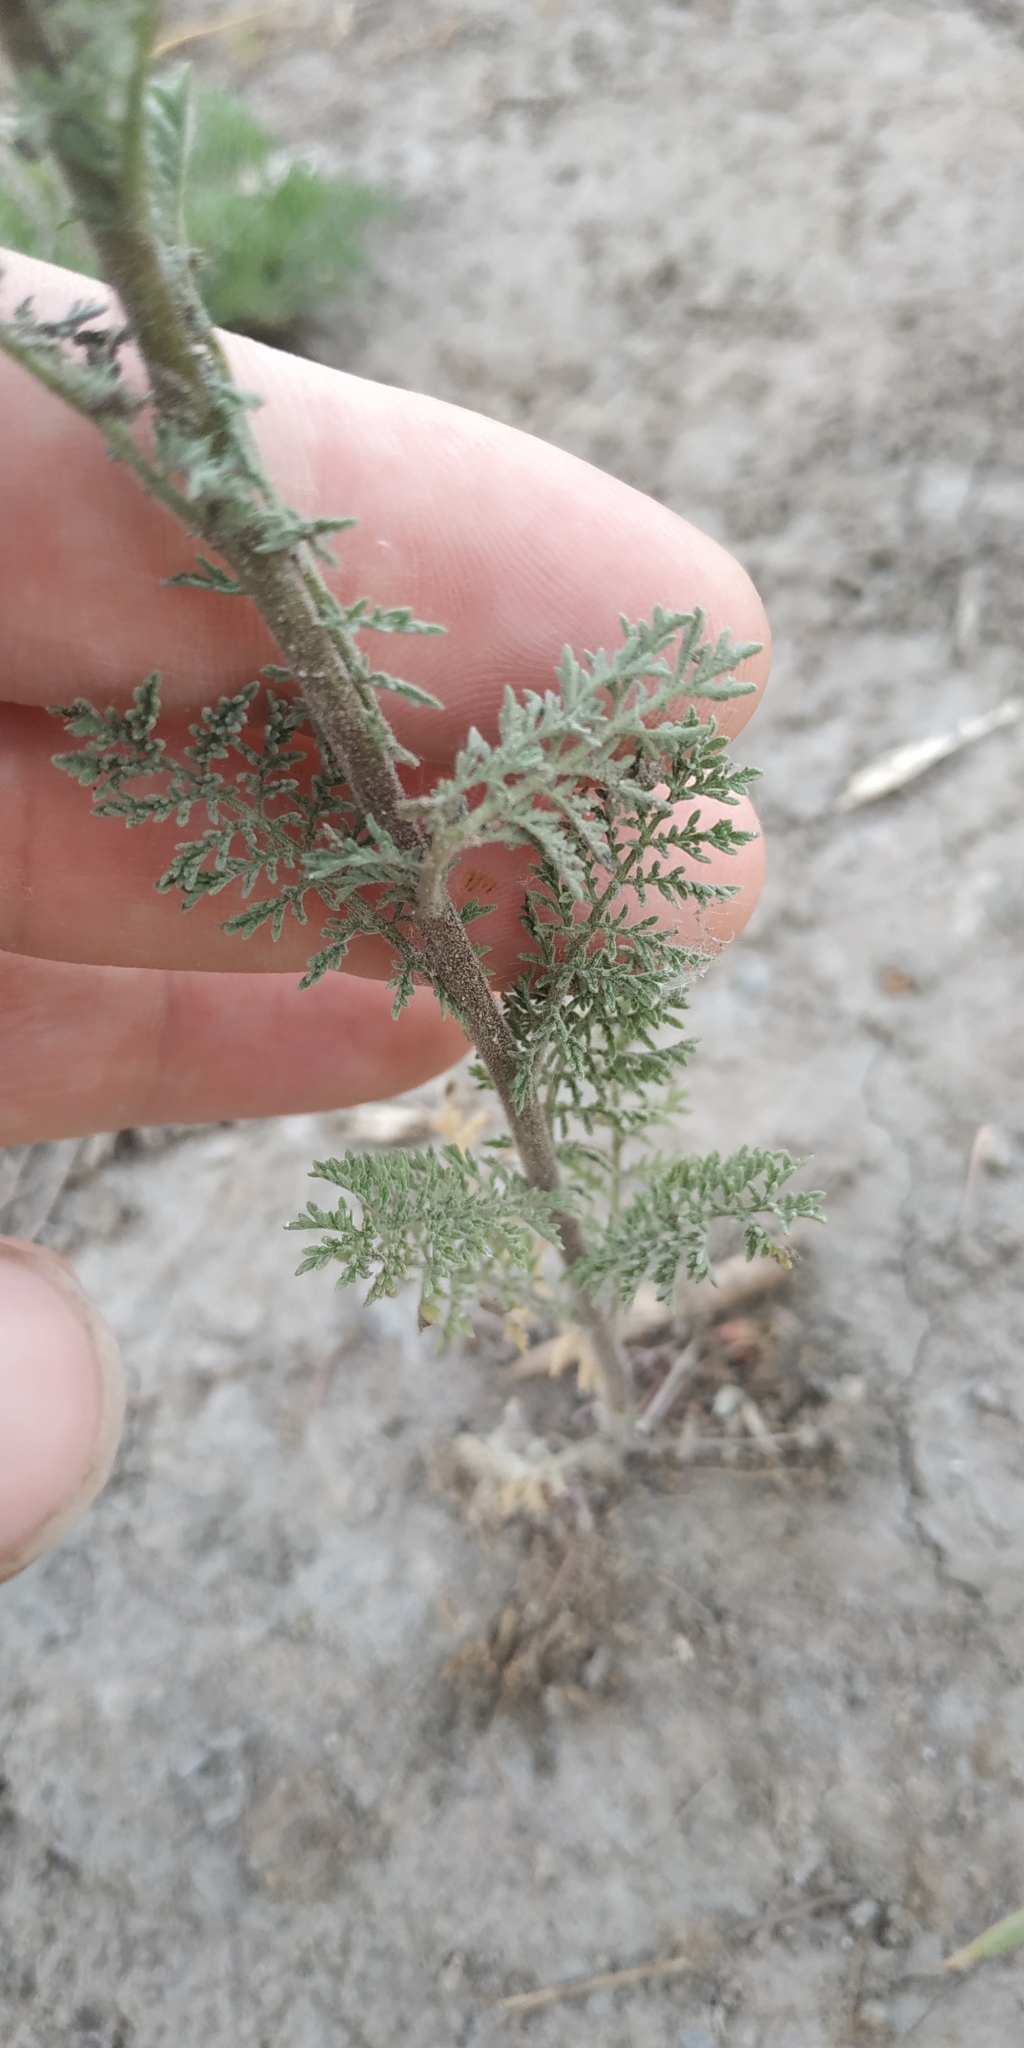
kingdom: Plantae
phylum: Tracheophyta
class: Magnoliopsida
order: Brassicales
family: Brassicaceae
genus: Descurainia
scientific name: Descurainia sophia
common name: Flixweed
